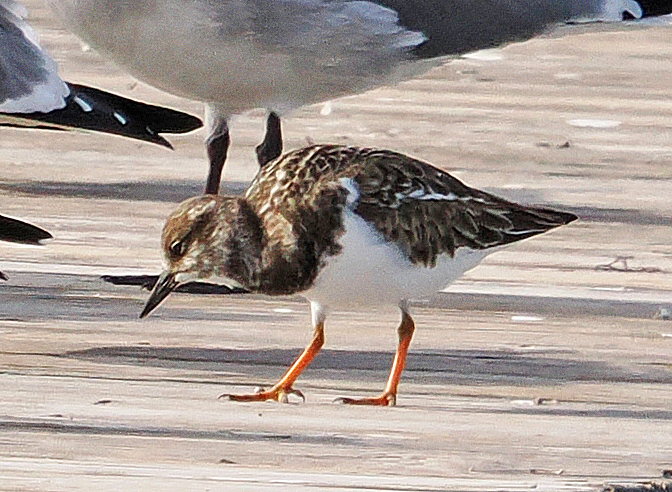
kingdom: Animalia
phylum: Chordata
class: Aves
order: Charadriiformes
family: Scolopacidae
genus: Arenaria
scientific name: Arenaria interpres
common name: Ruddy turnstone
